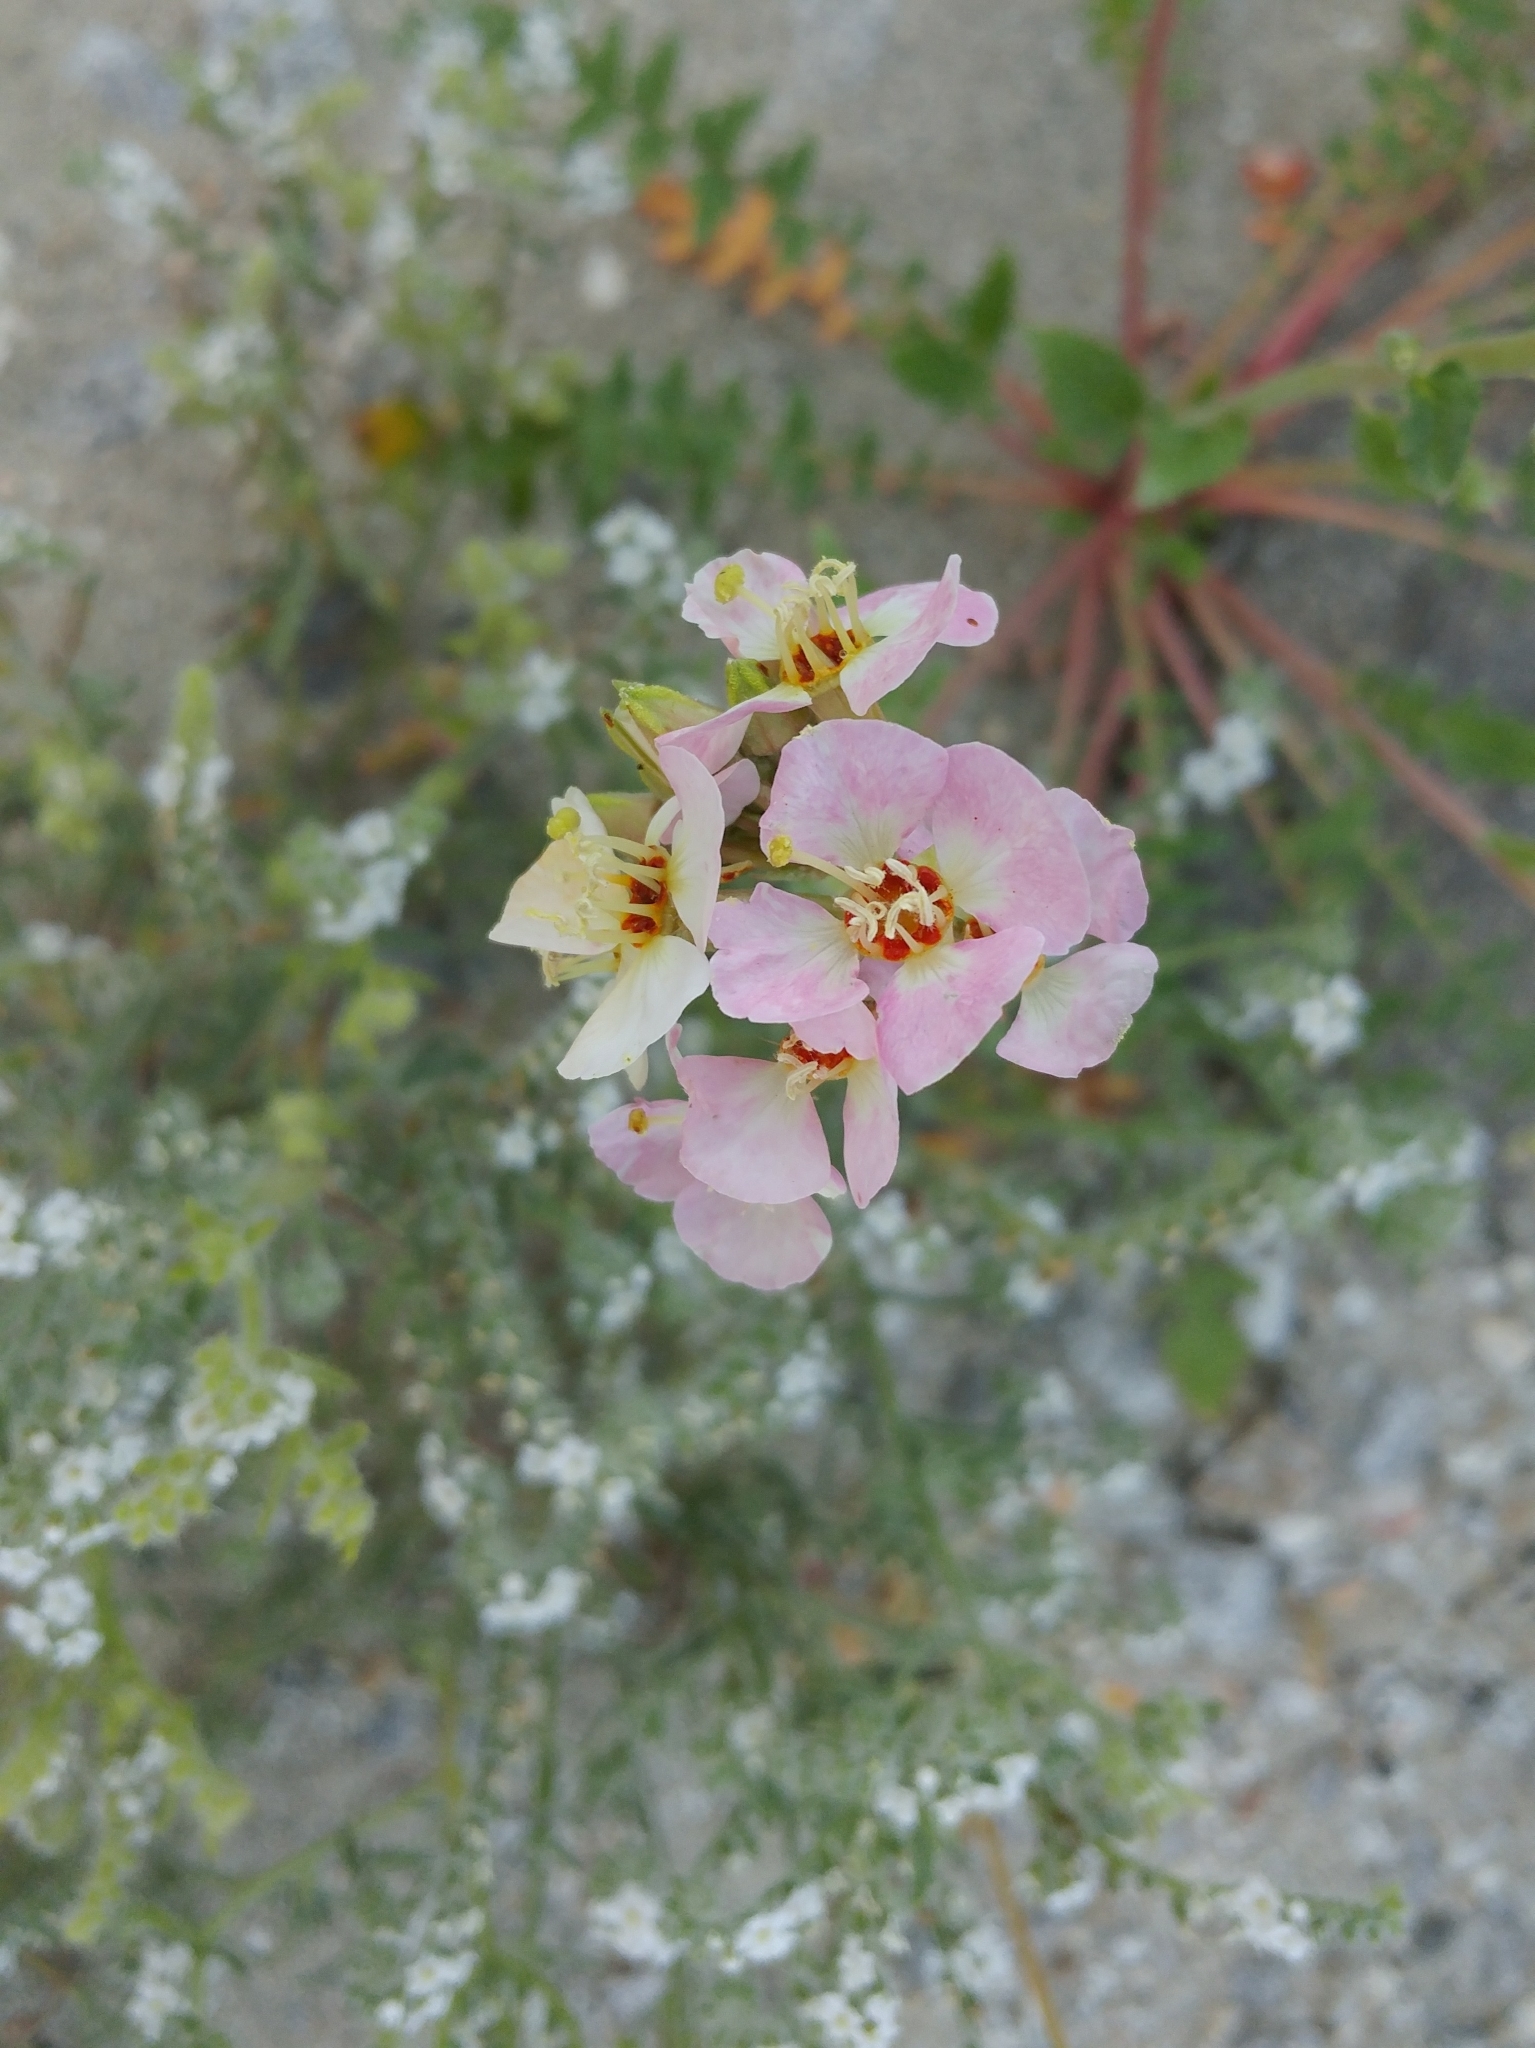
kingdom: Plantae
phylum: Tracheophyta
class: Magnoliopsida
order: Myrtales
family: Onagraceae
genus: Chylismia
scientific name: Chylismia claviformis
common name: Browneyes
